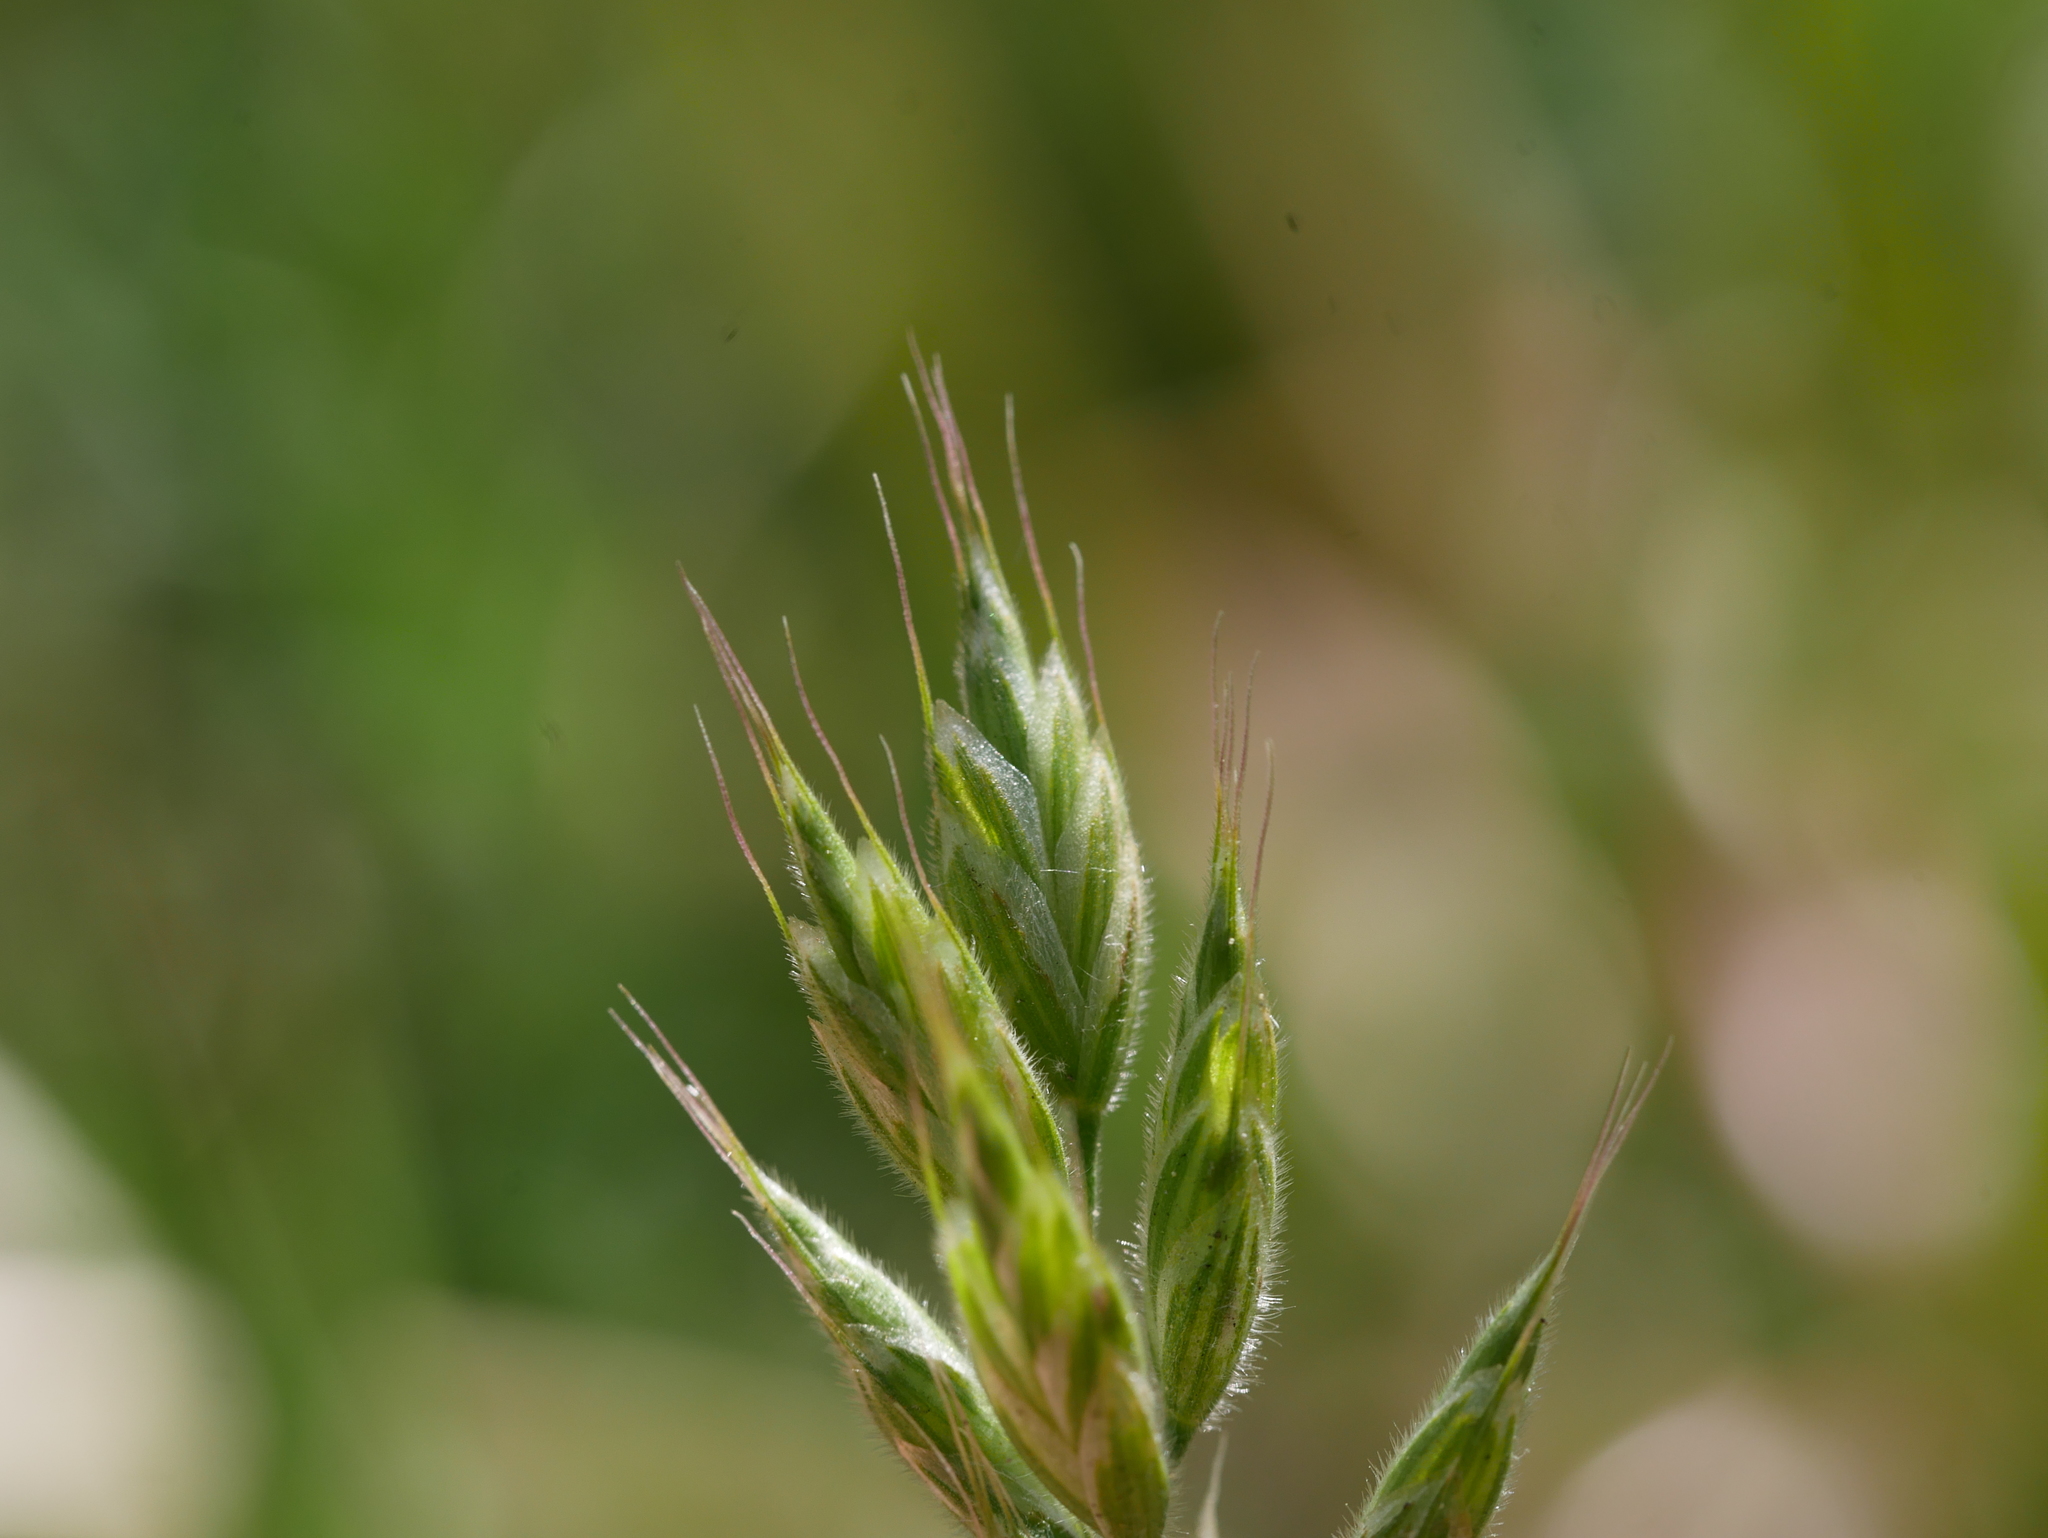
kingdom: Plantae
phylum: Tracheophyta
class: Liliopsida
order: Poales
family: Poaceae
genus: Bromus
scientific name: Bromus hordeaceus
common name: Soft brome
